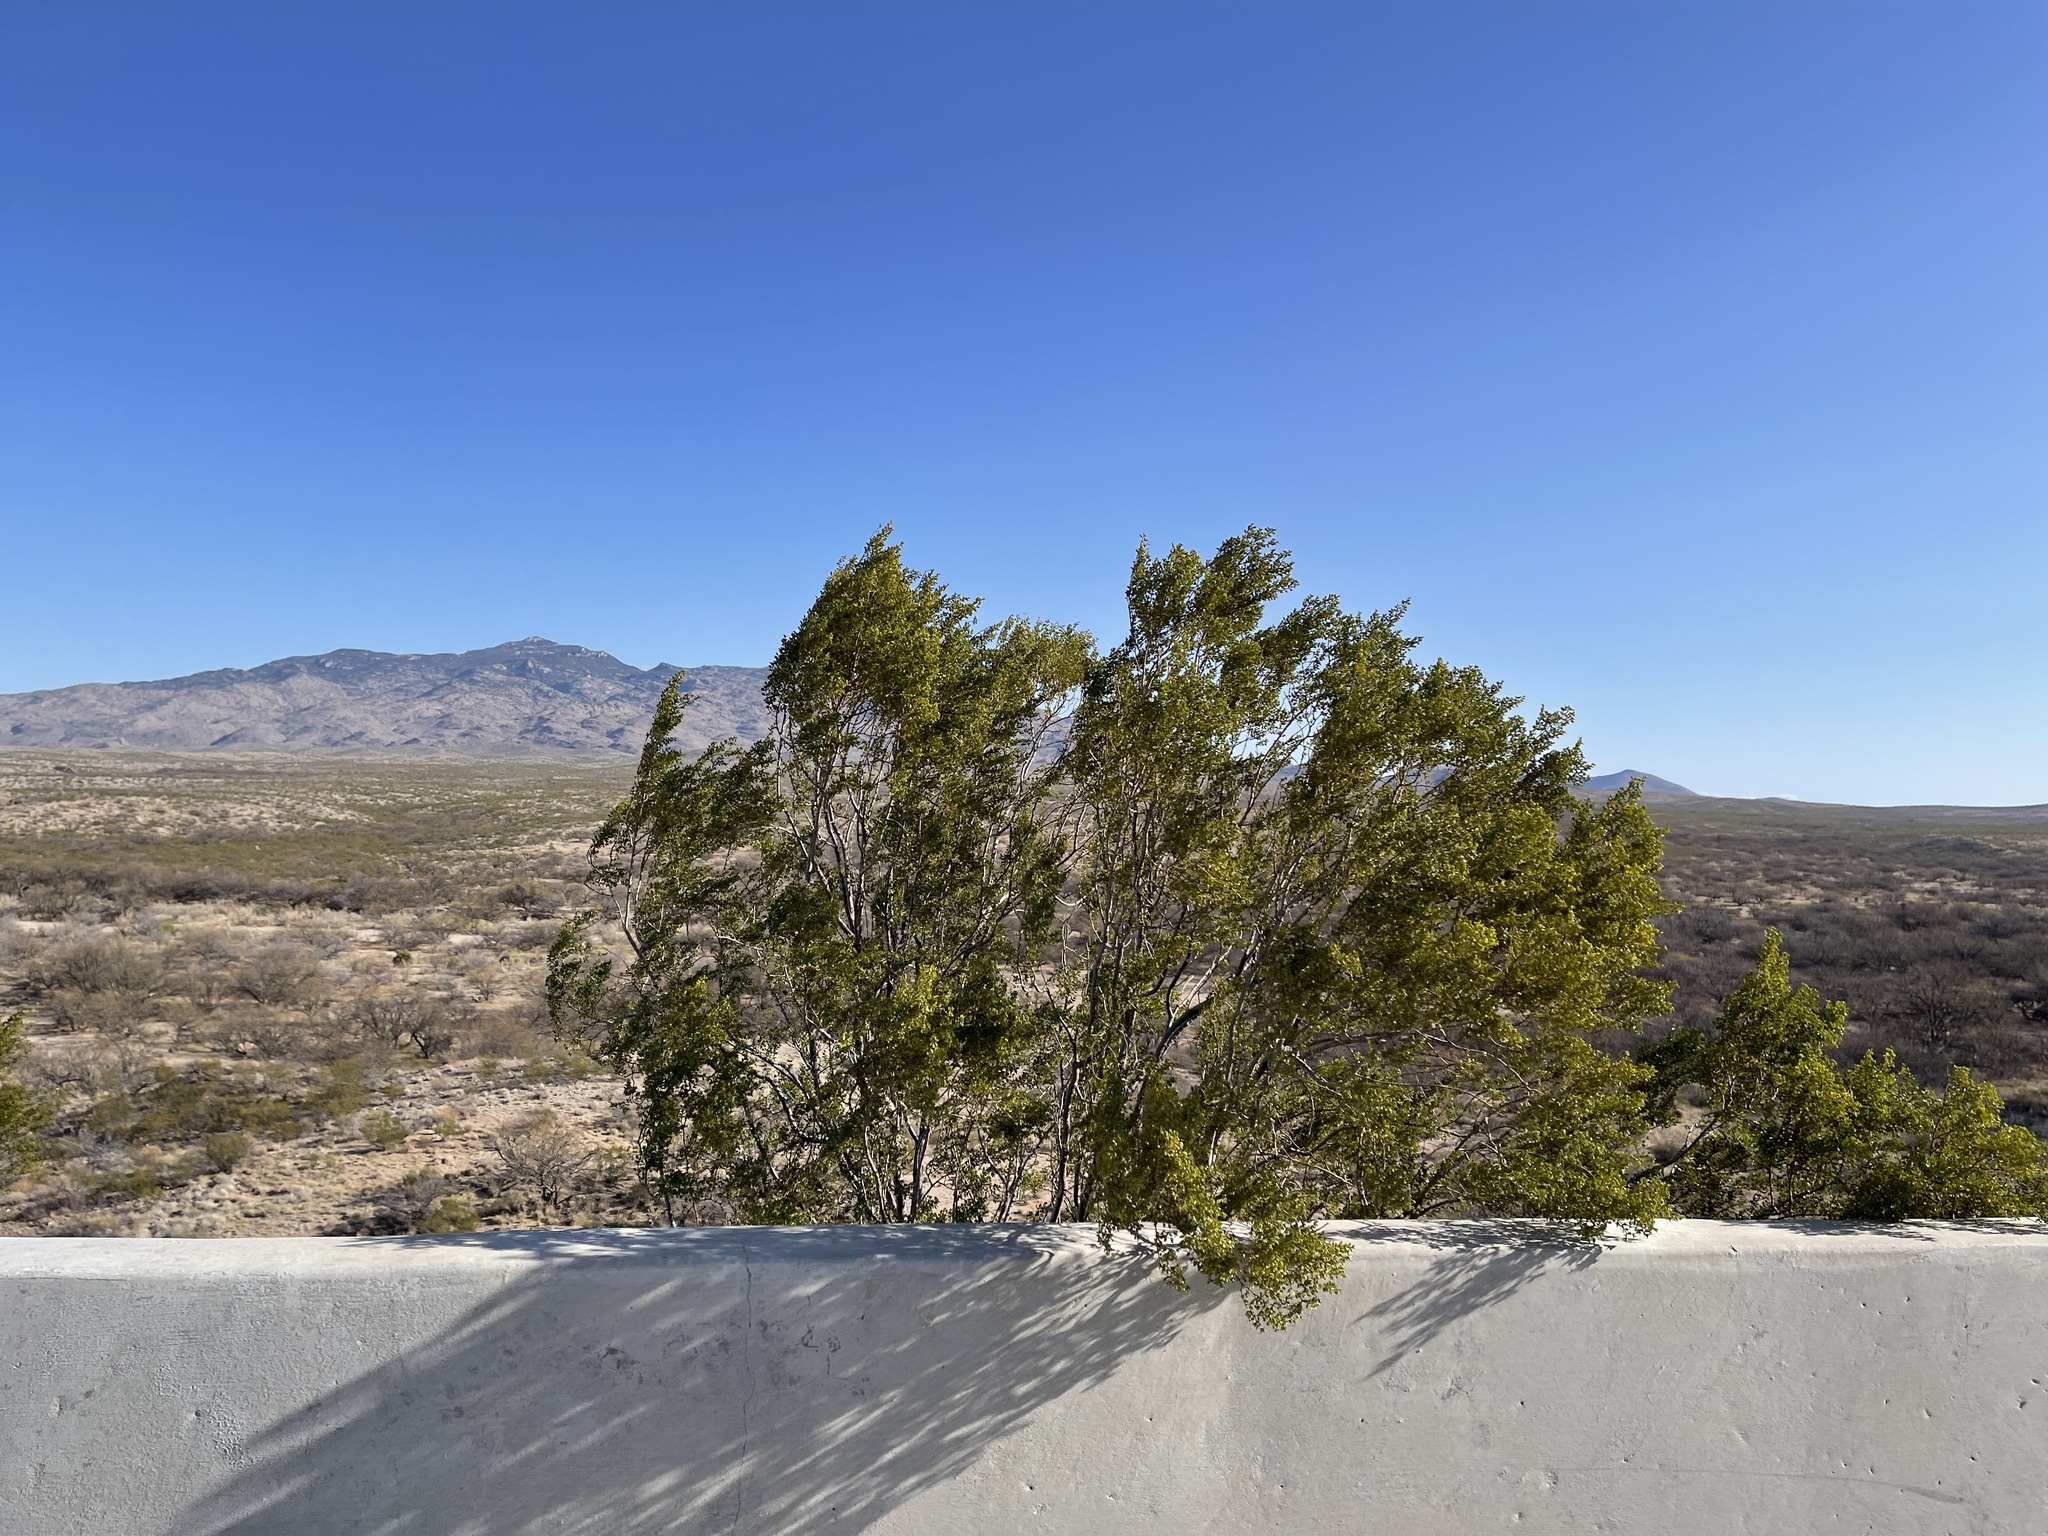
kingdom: Plantae
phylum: Tracheophyta
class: Magnoliopsida
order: Zygophyllales
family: Zygophyllaceae
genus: Larrea
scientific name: Larrea tridentata
